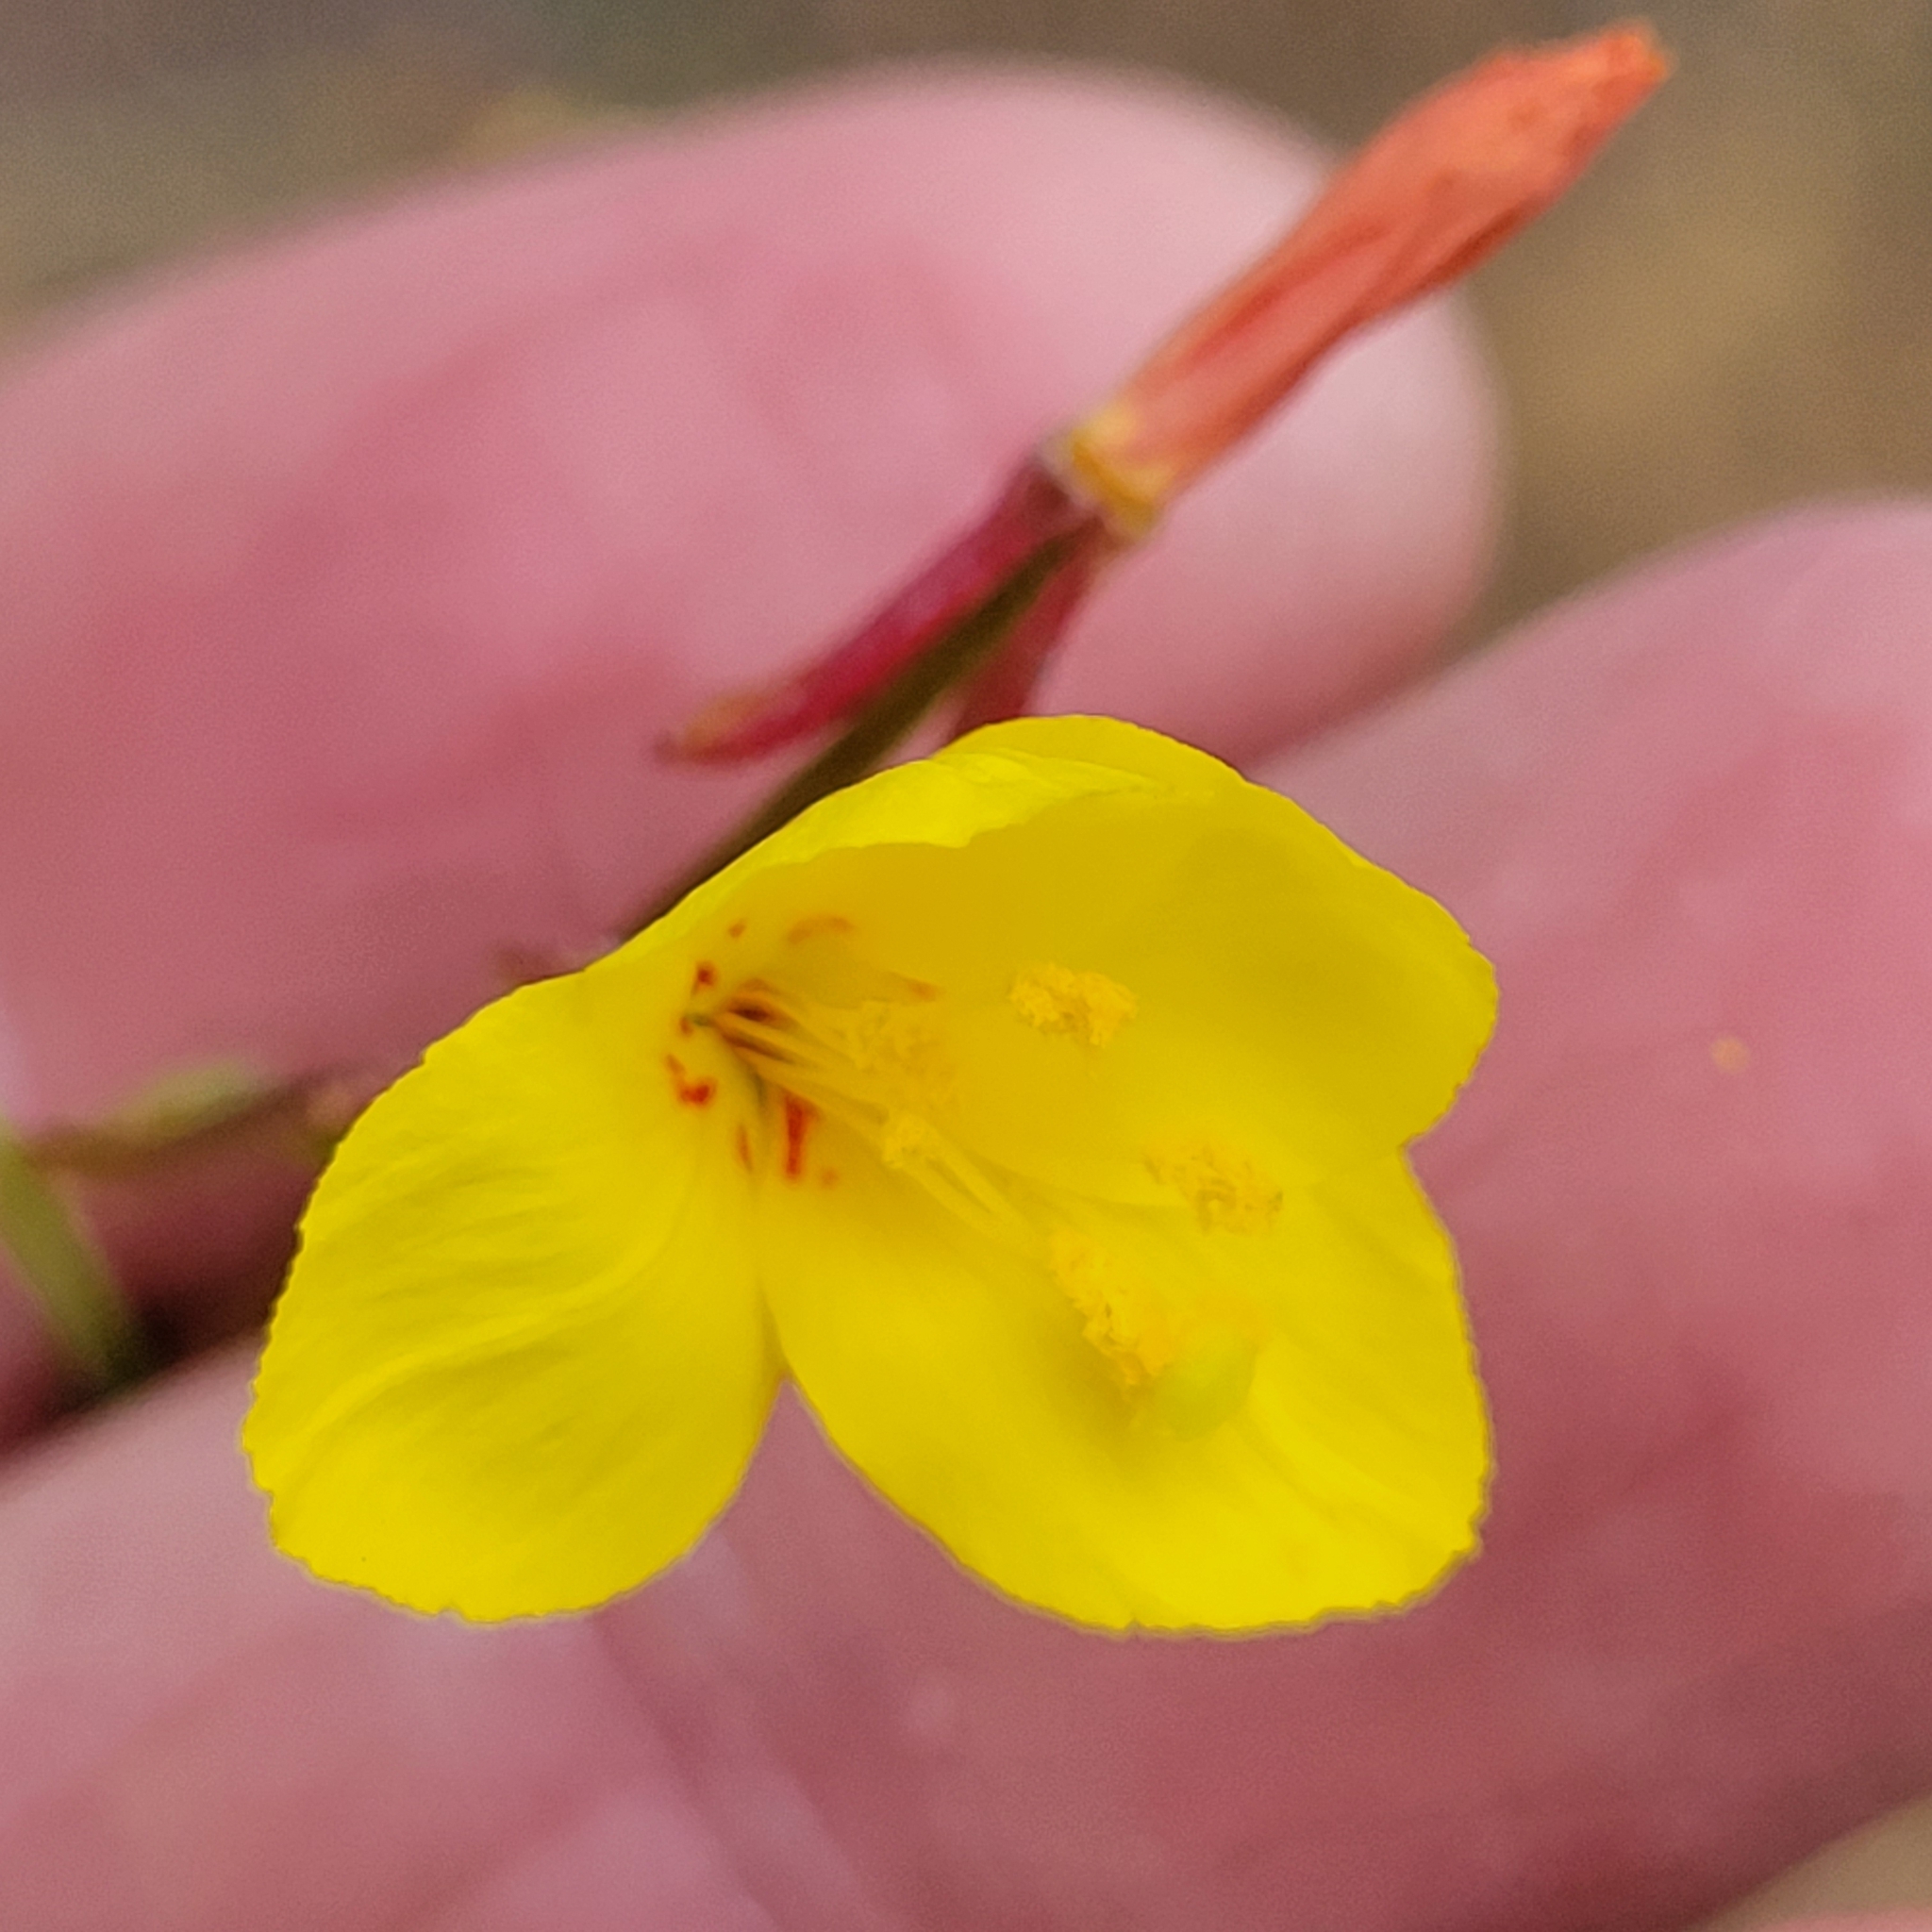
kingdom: Plantae
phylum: Tracheophyta
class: Magnoliopsida
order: Myrtales
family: Onagraceae
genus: Eulobus
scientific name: Eulobus californicus
